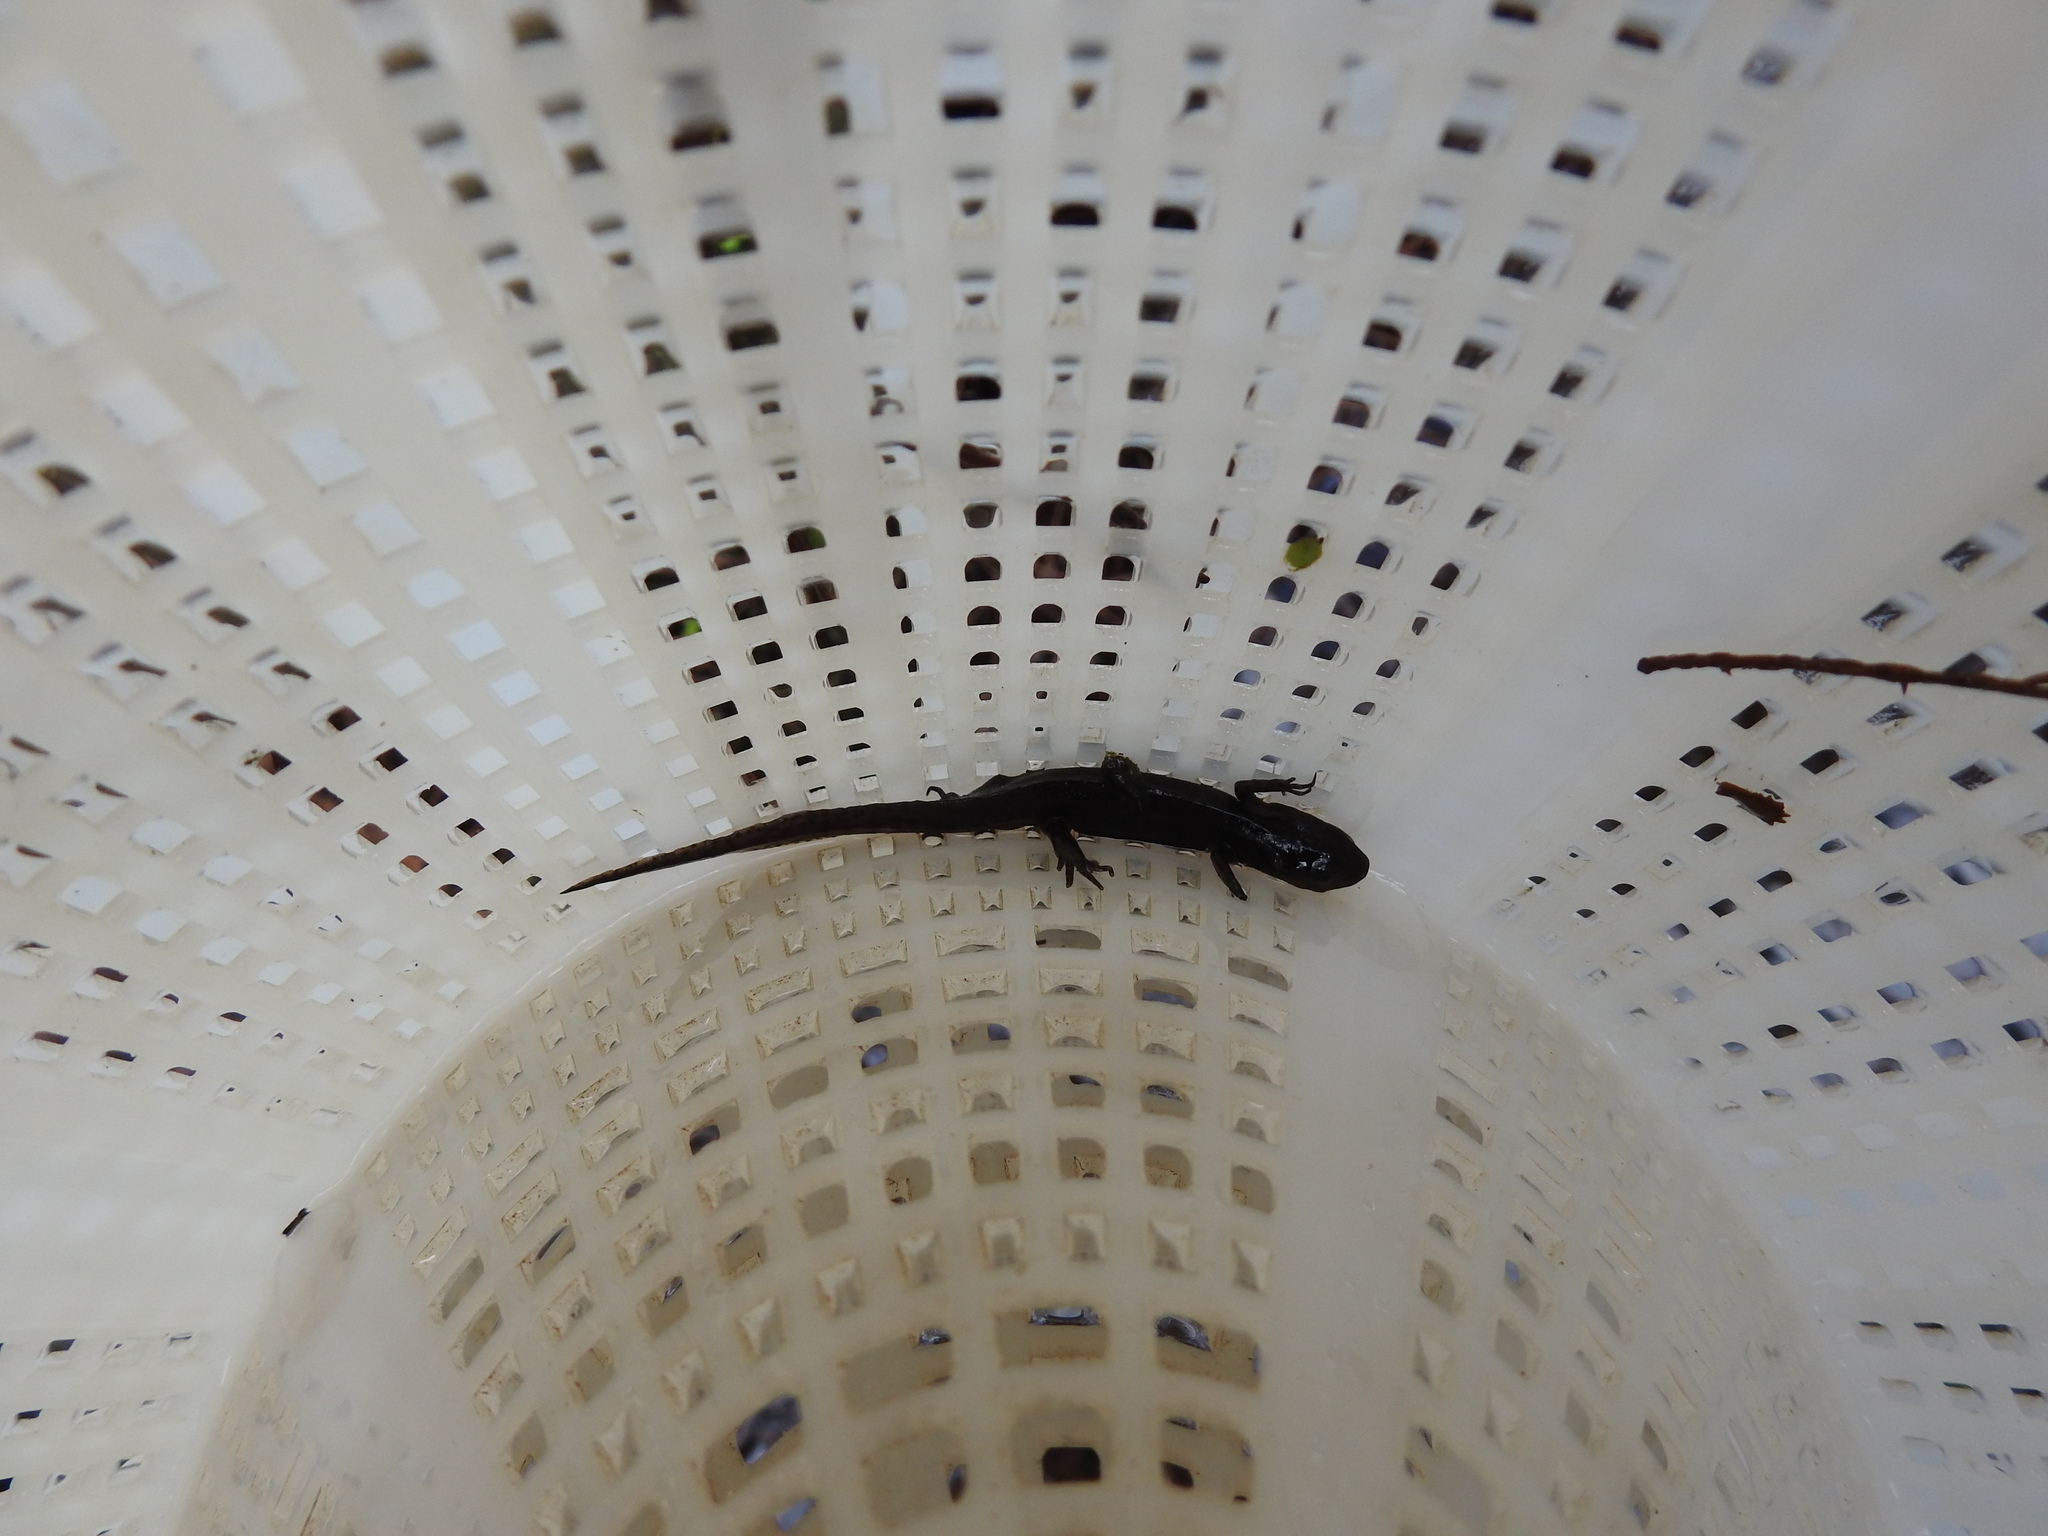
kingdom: Animalia
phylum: Chordata
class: Amphibia
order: Caudata
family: Salamandridae
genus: Notophthalmus
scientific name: Notophthalmus viridescens
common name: Eastern newt
